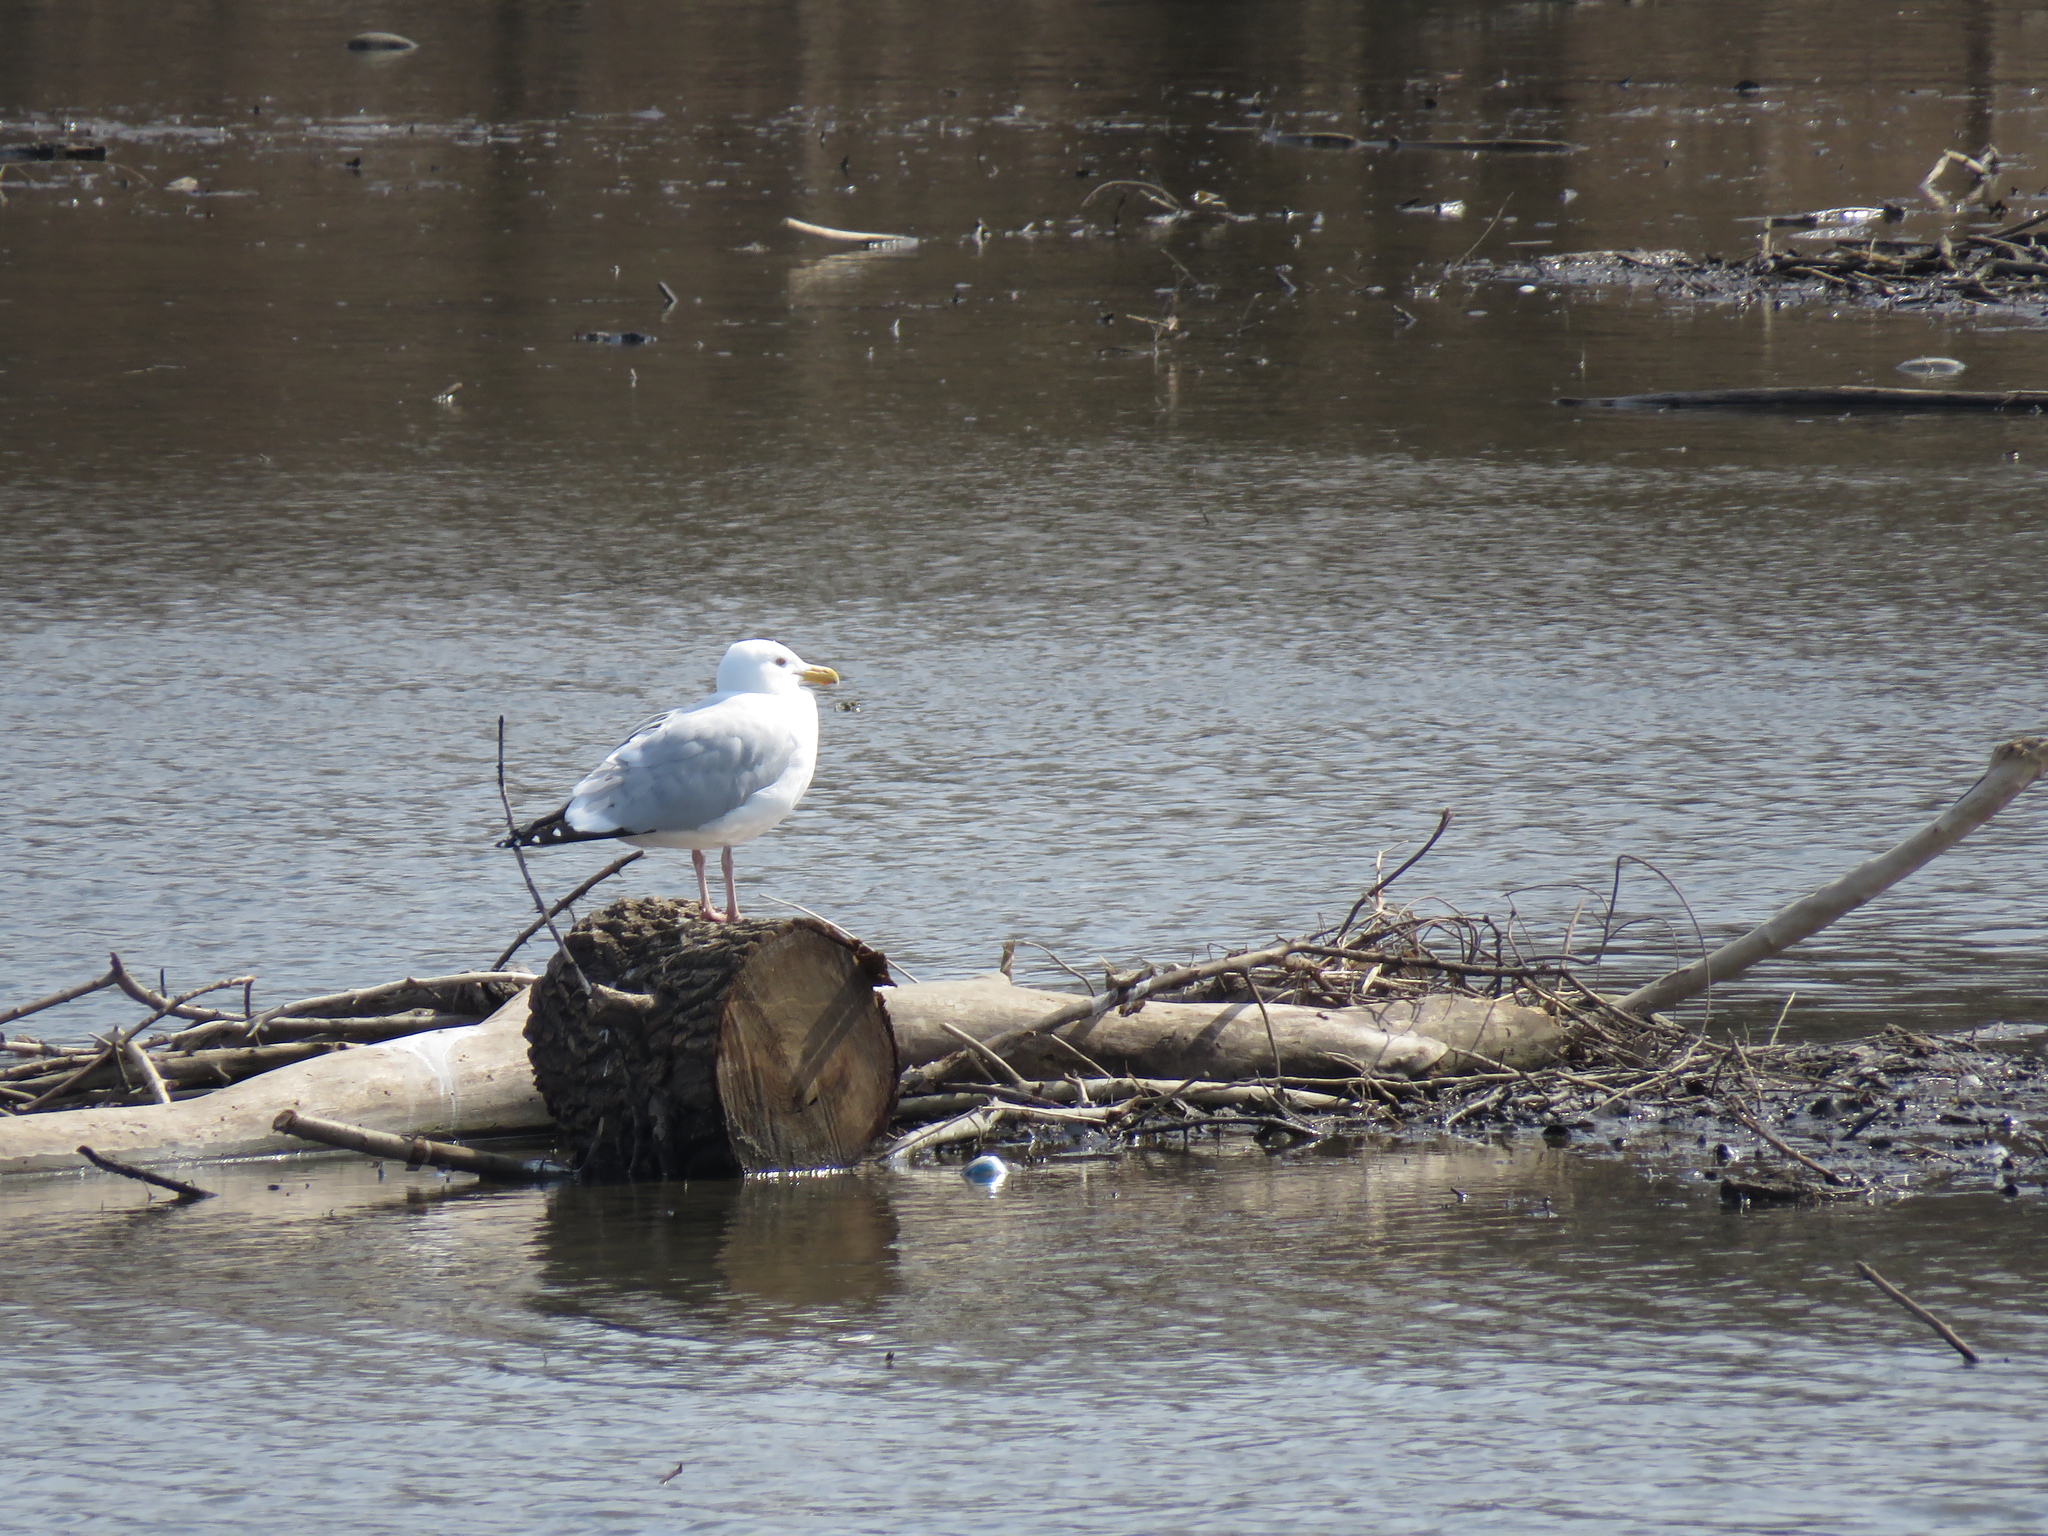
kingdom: Animalia
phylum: Chordata
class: Aves
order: Charadriiformes
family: Laridae
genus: Larus
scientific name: Larus argentatus
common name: Herring gull
